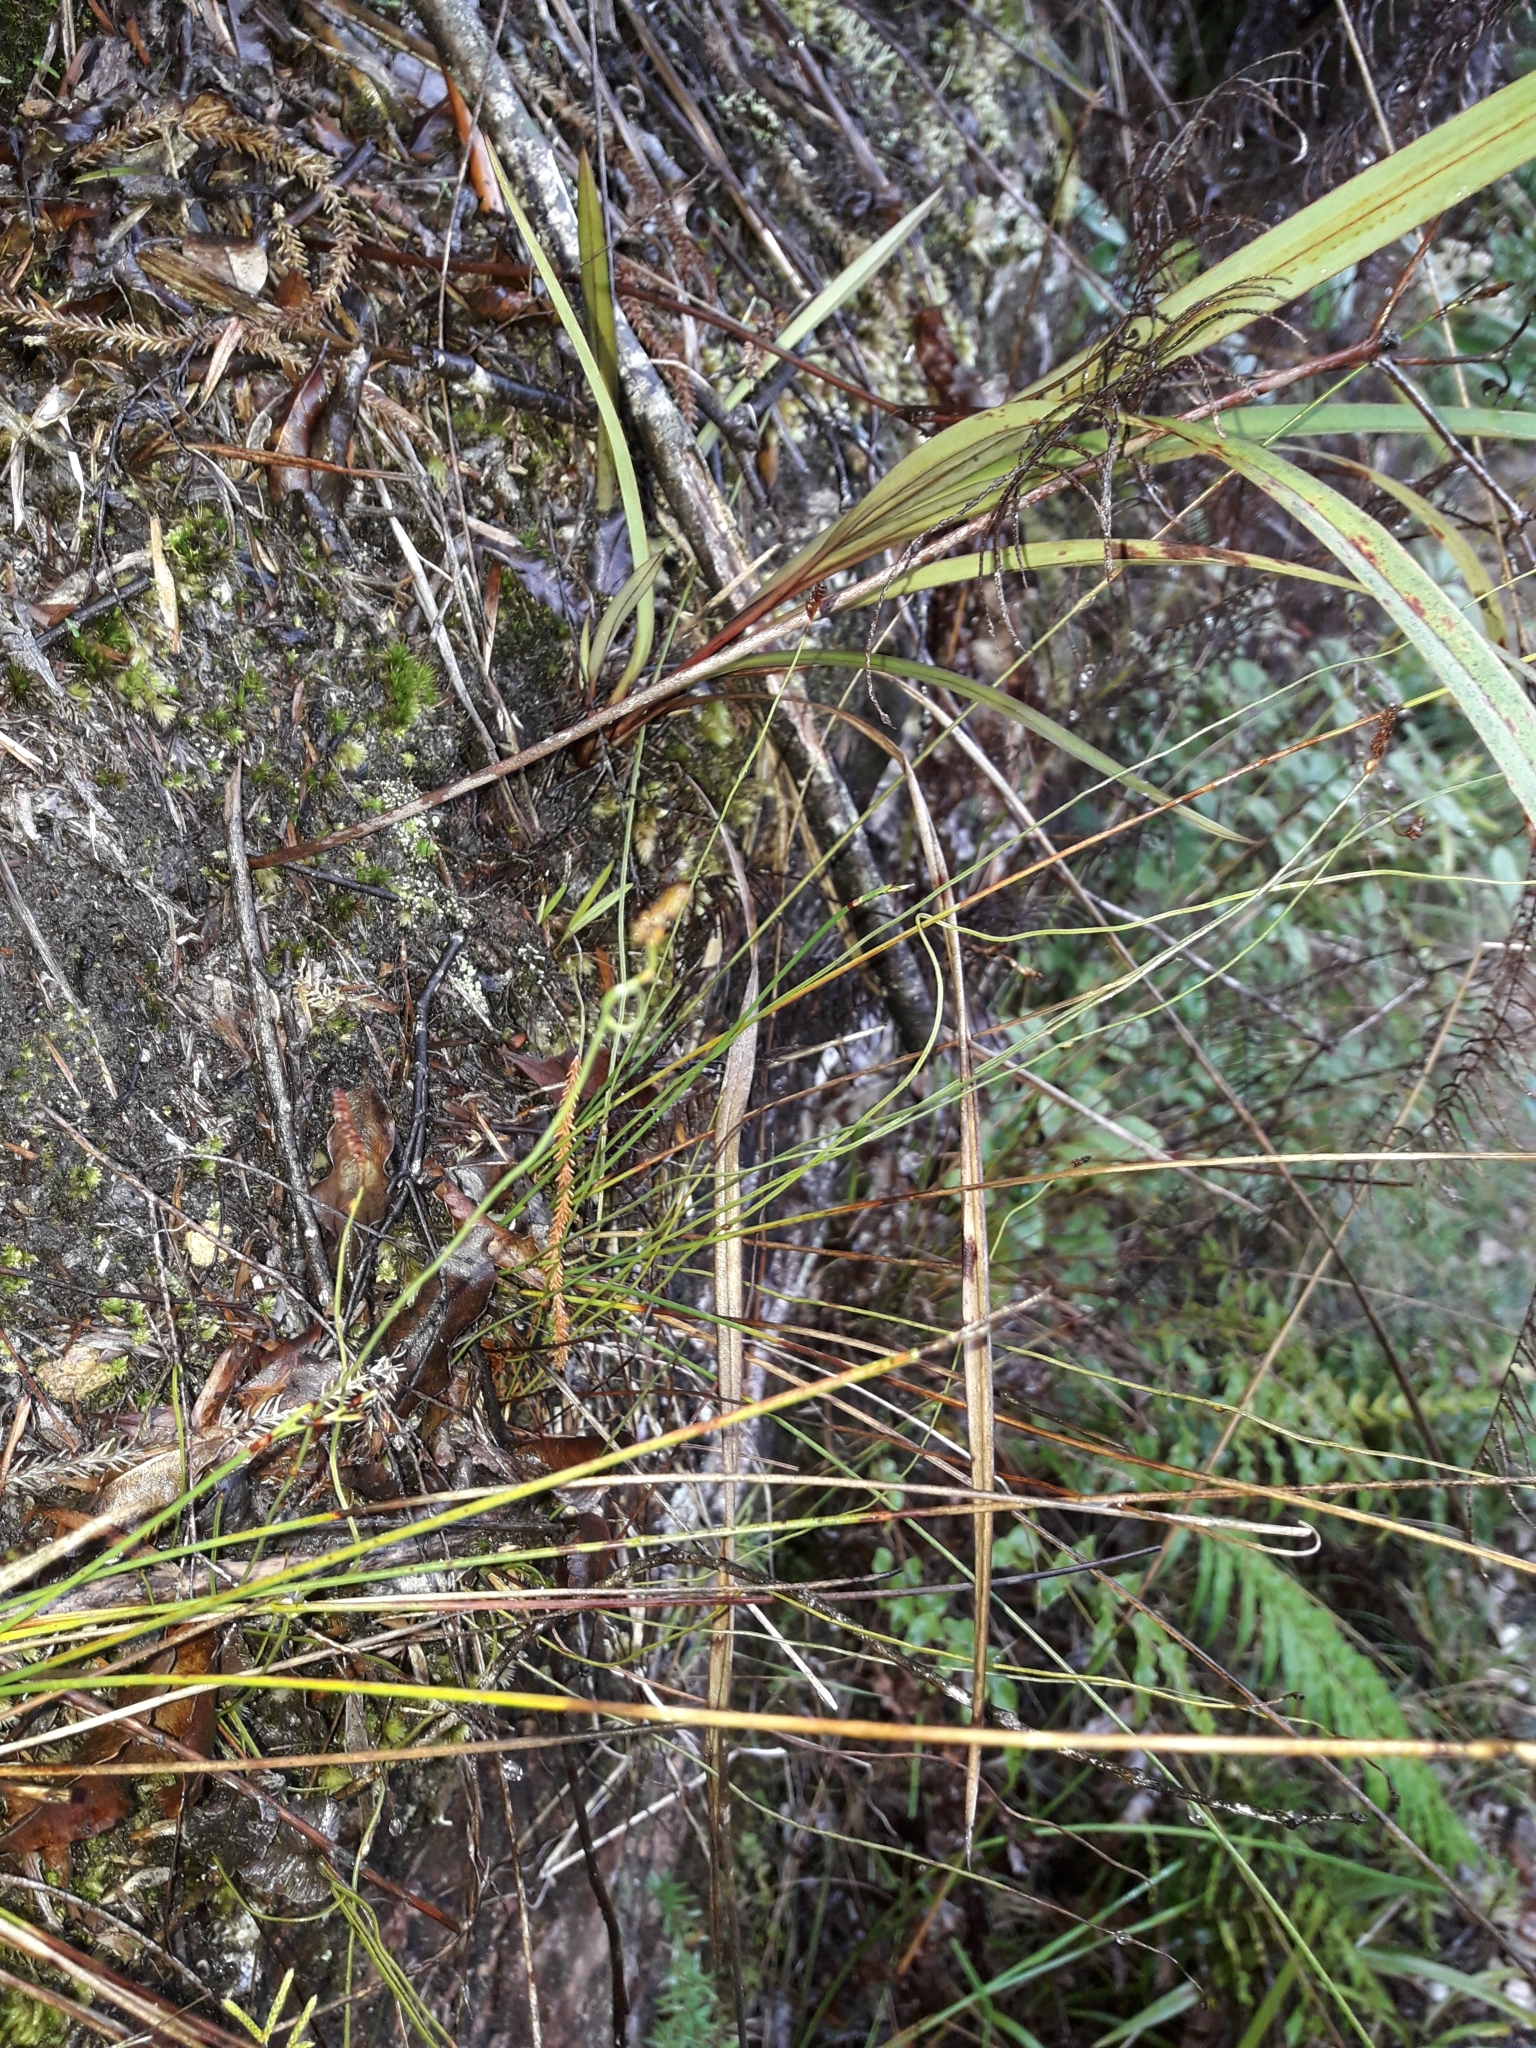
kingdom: Plantae
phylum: Tracheophyta
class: Polypodiopsida
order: Schizaeales
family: Schizaeaceae
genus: Microschizaea
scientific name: Microschizaea fistulosa
